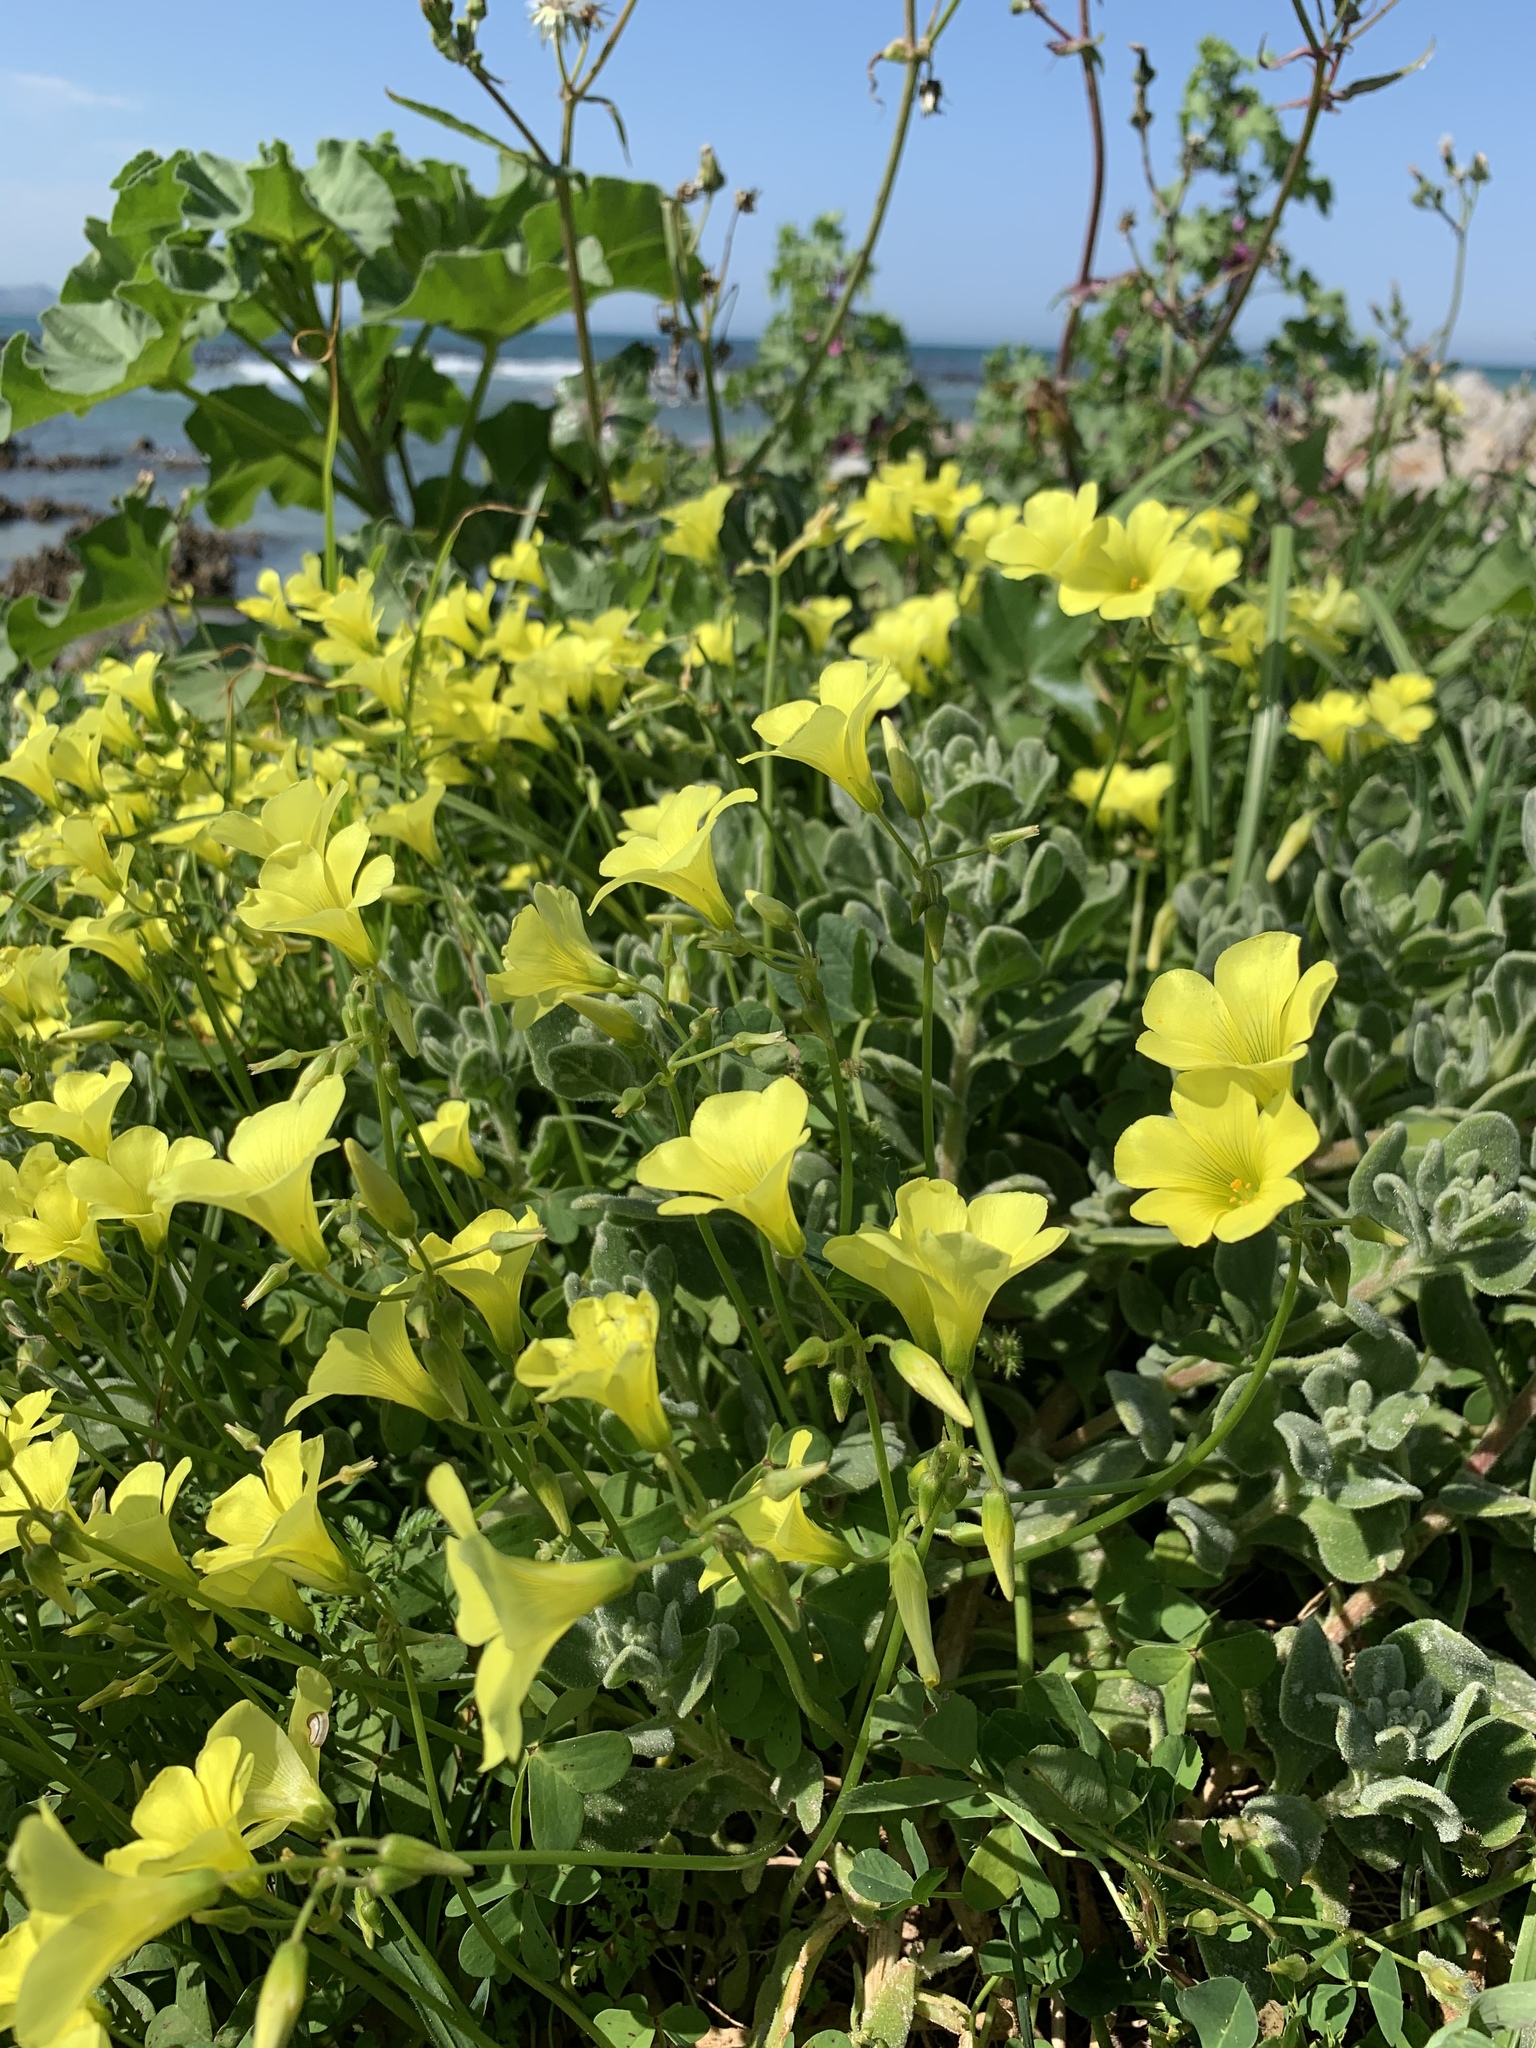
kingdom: Plantae
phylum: Tracheophyta
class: Magnoliopsida
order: Oxalidales
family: Oxalidaceae
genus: Oxalis
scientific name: Oxalis pes-caprae
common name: Bermuda-buttercup
